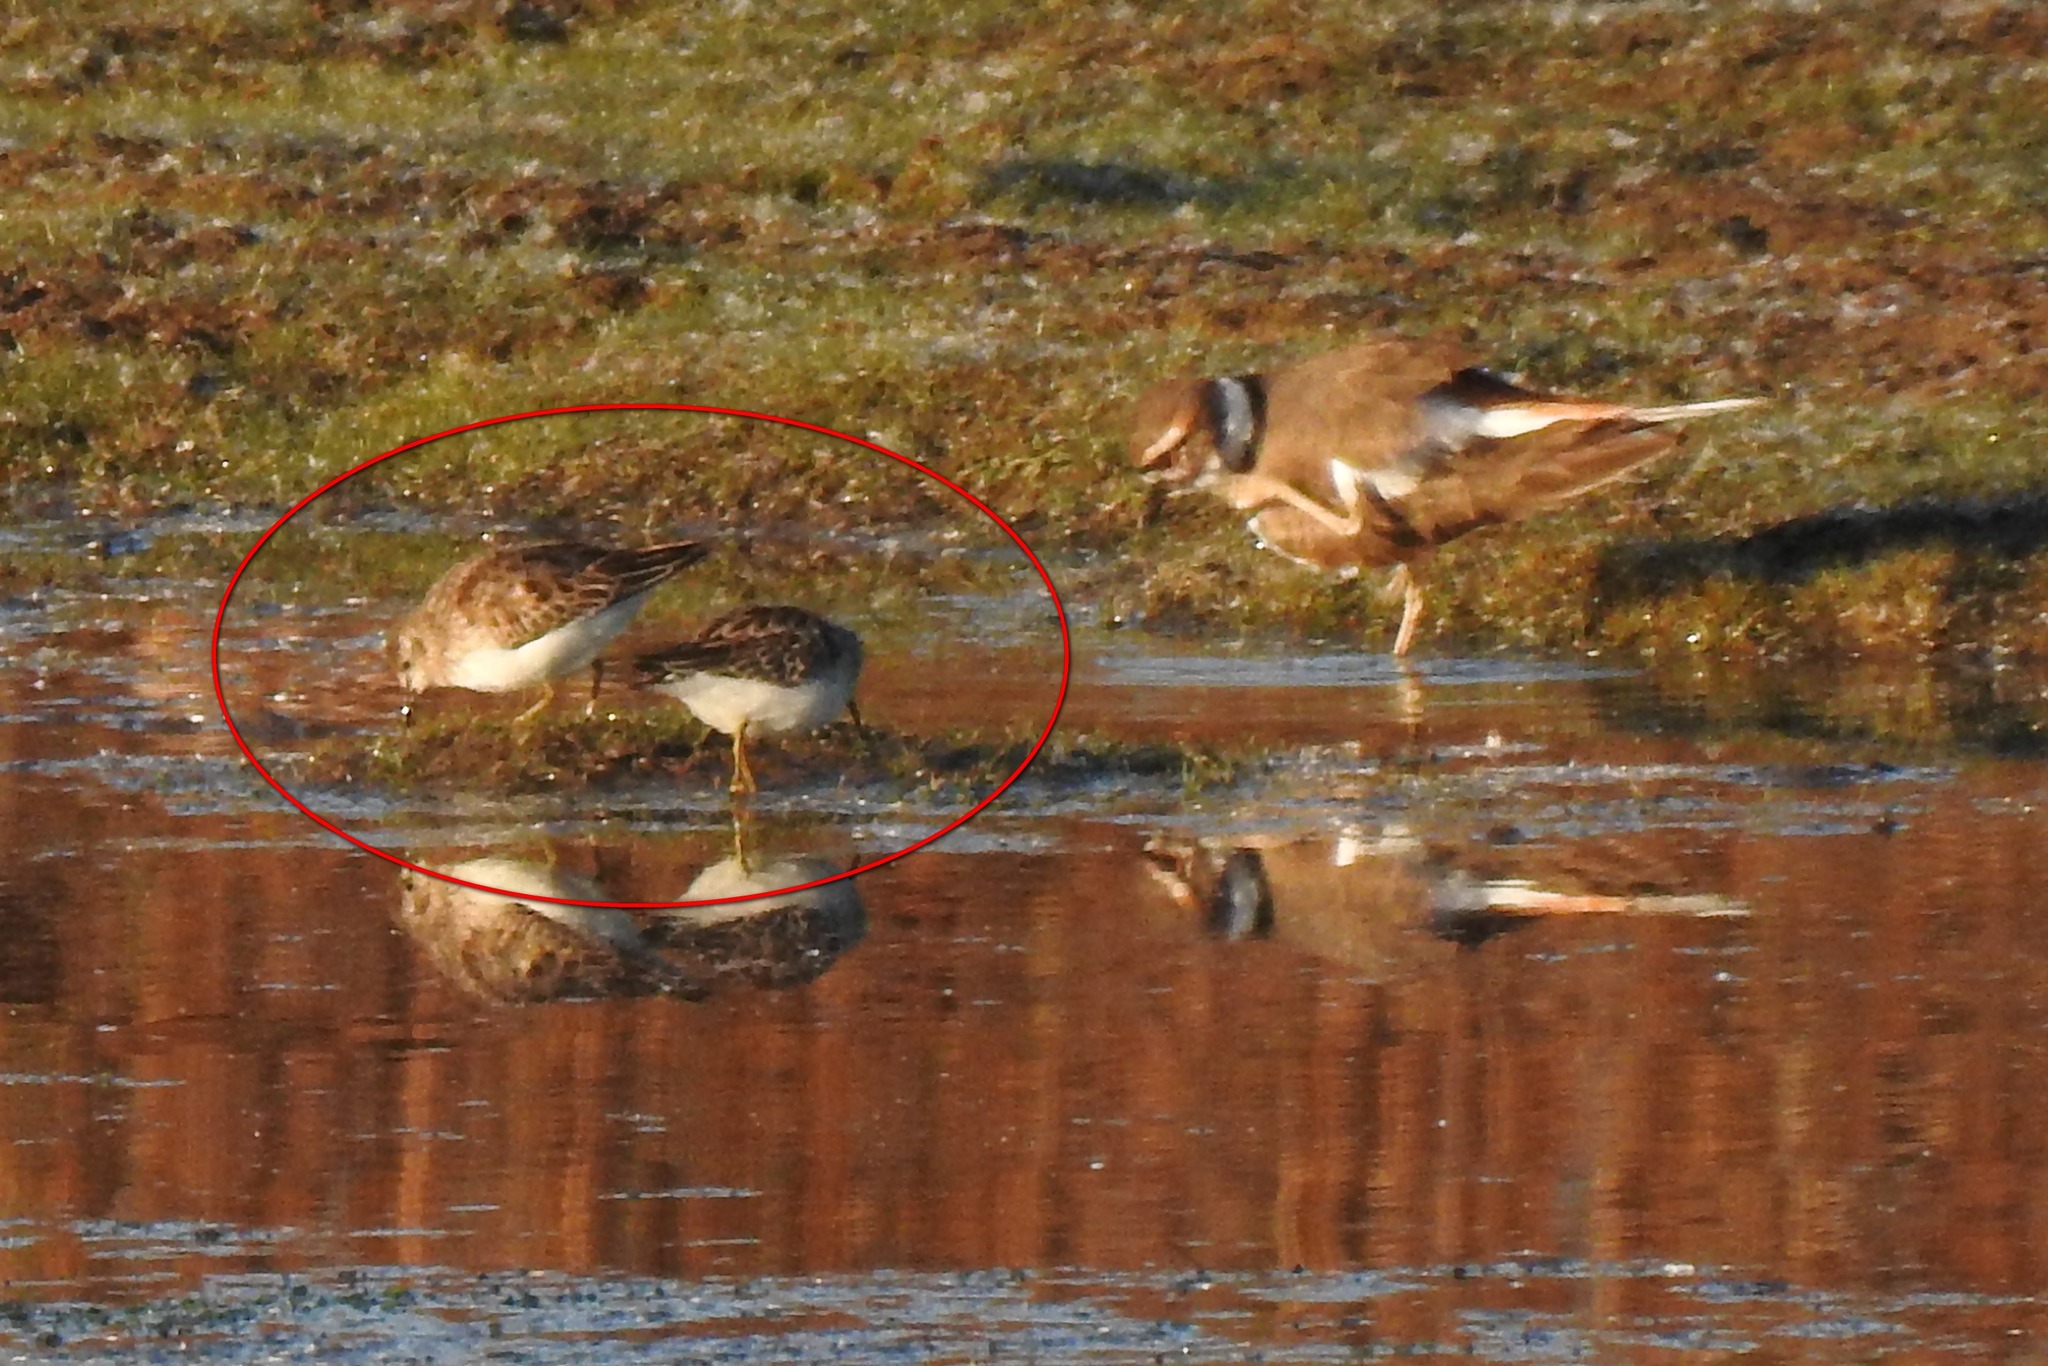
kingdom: Animalia
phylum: Chordata
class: Aves
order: Charadriiformes
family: Scolopacidae
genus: Calidris
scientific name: Calidris minutilla
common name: Least sandpiper
